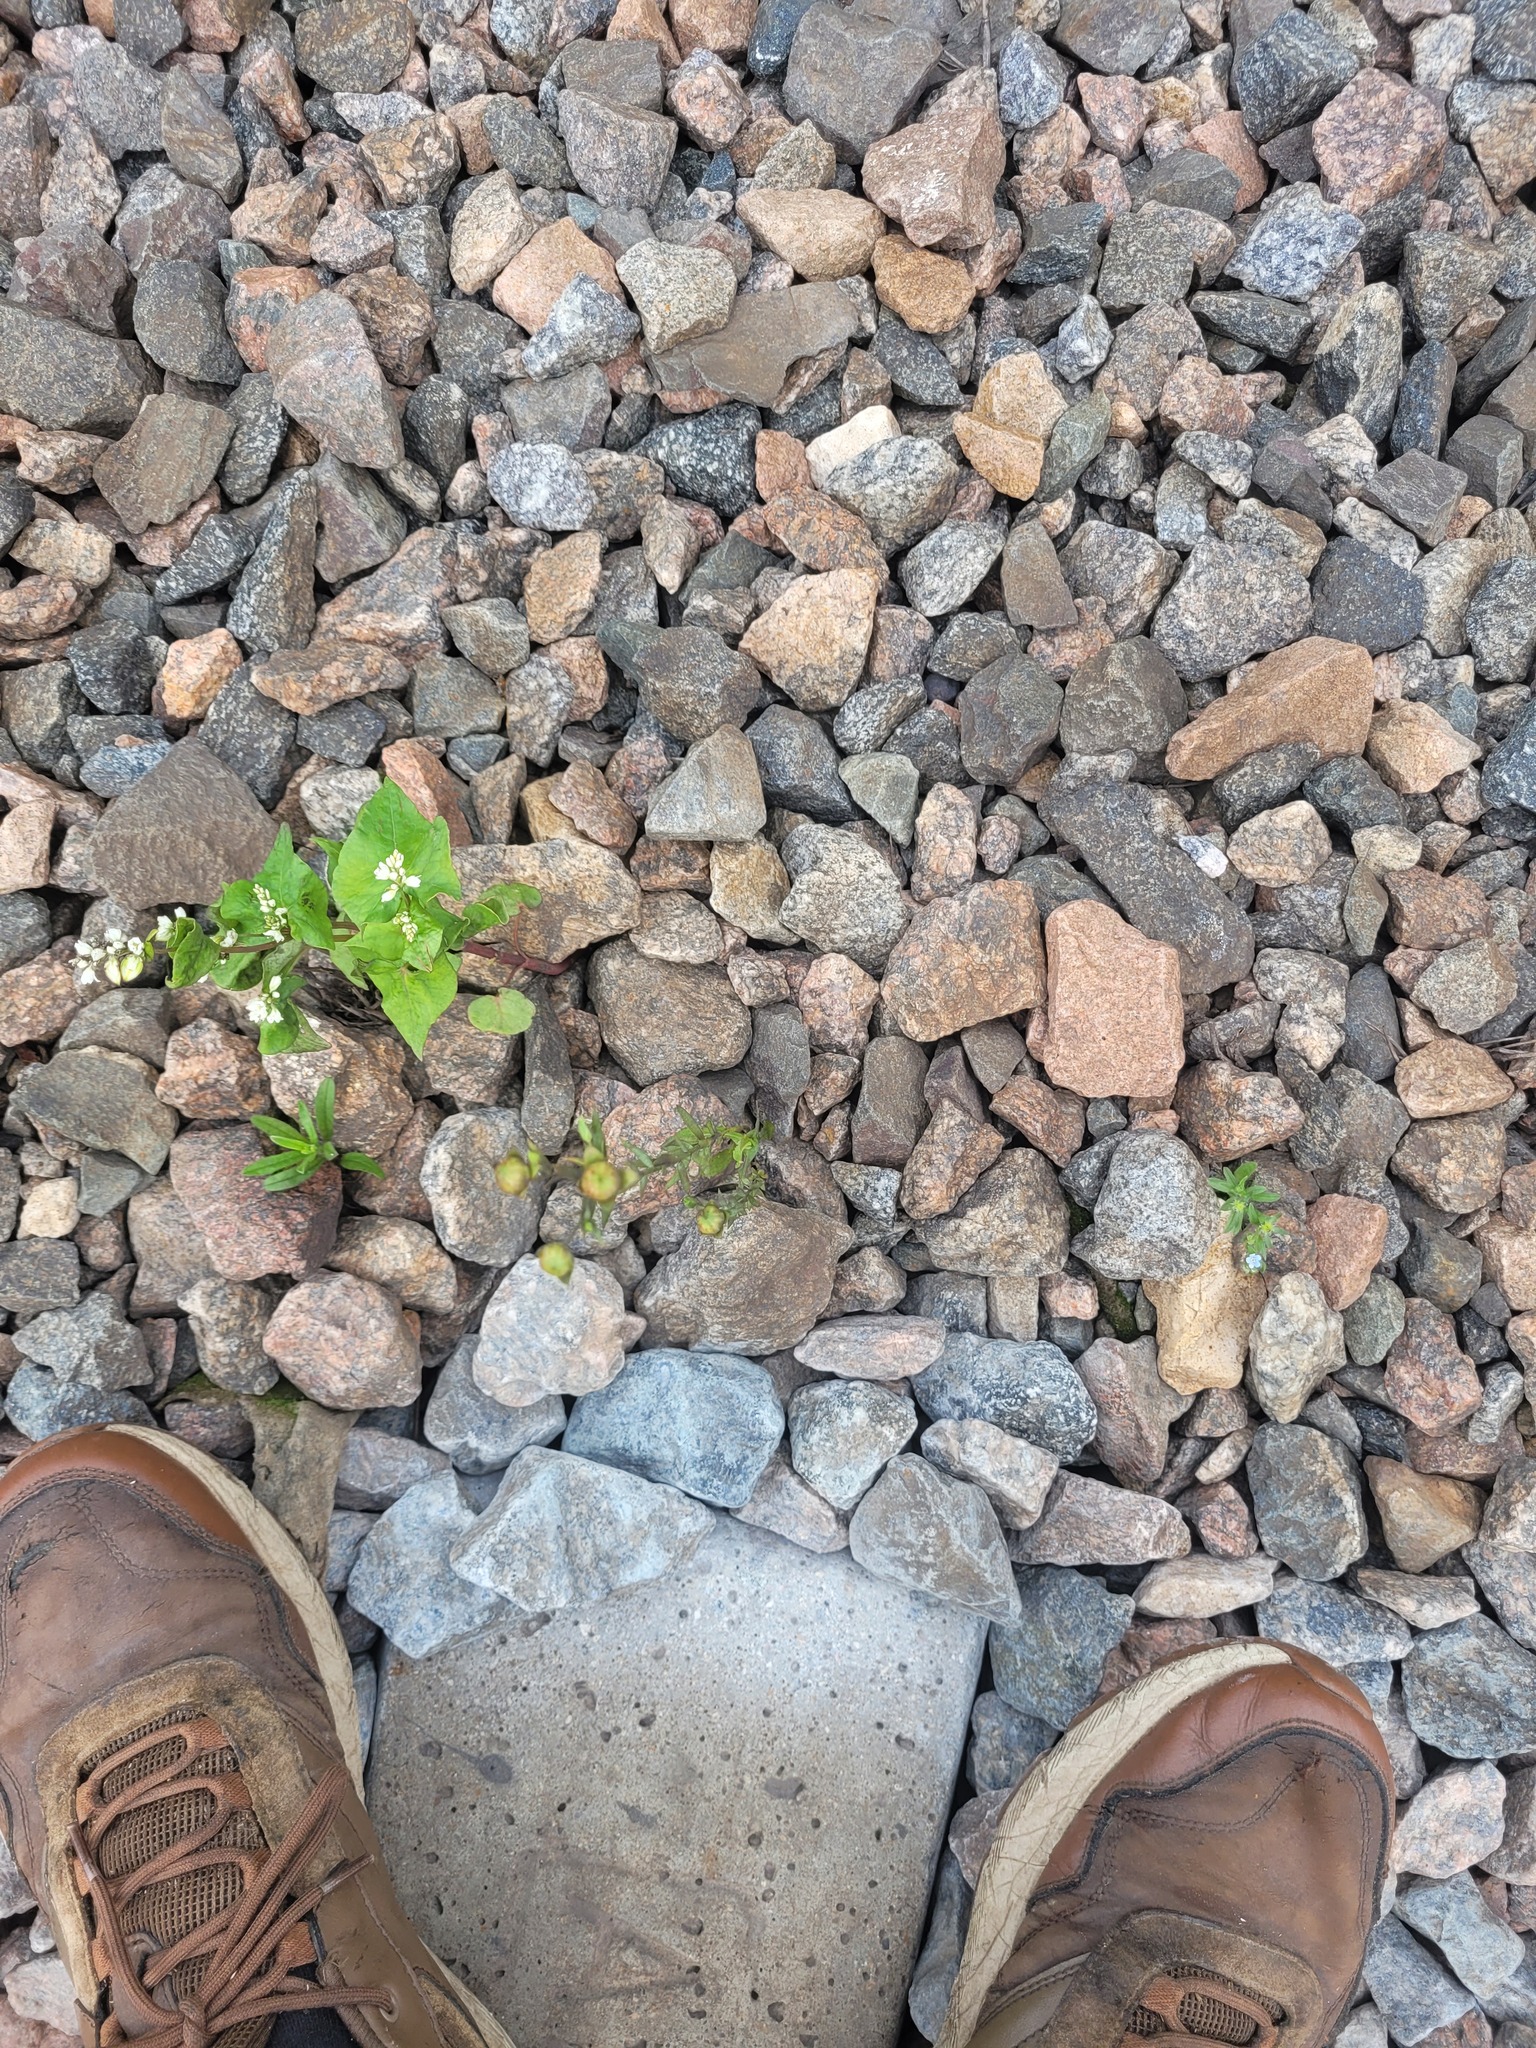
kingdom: Plantae
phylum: Tracheophyta
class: Magnoliopsida
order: Malpighiales
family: Linaceae
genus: Linum
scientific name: Linum usitatissimum
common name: Flax
